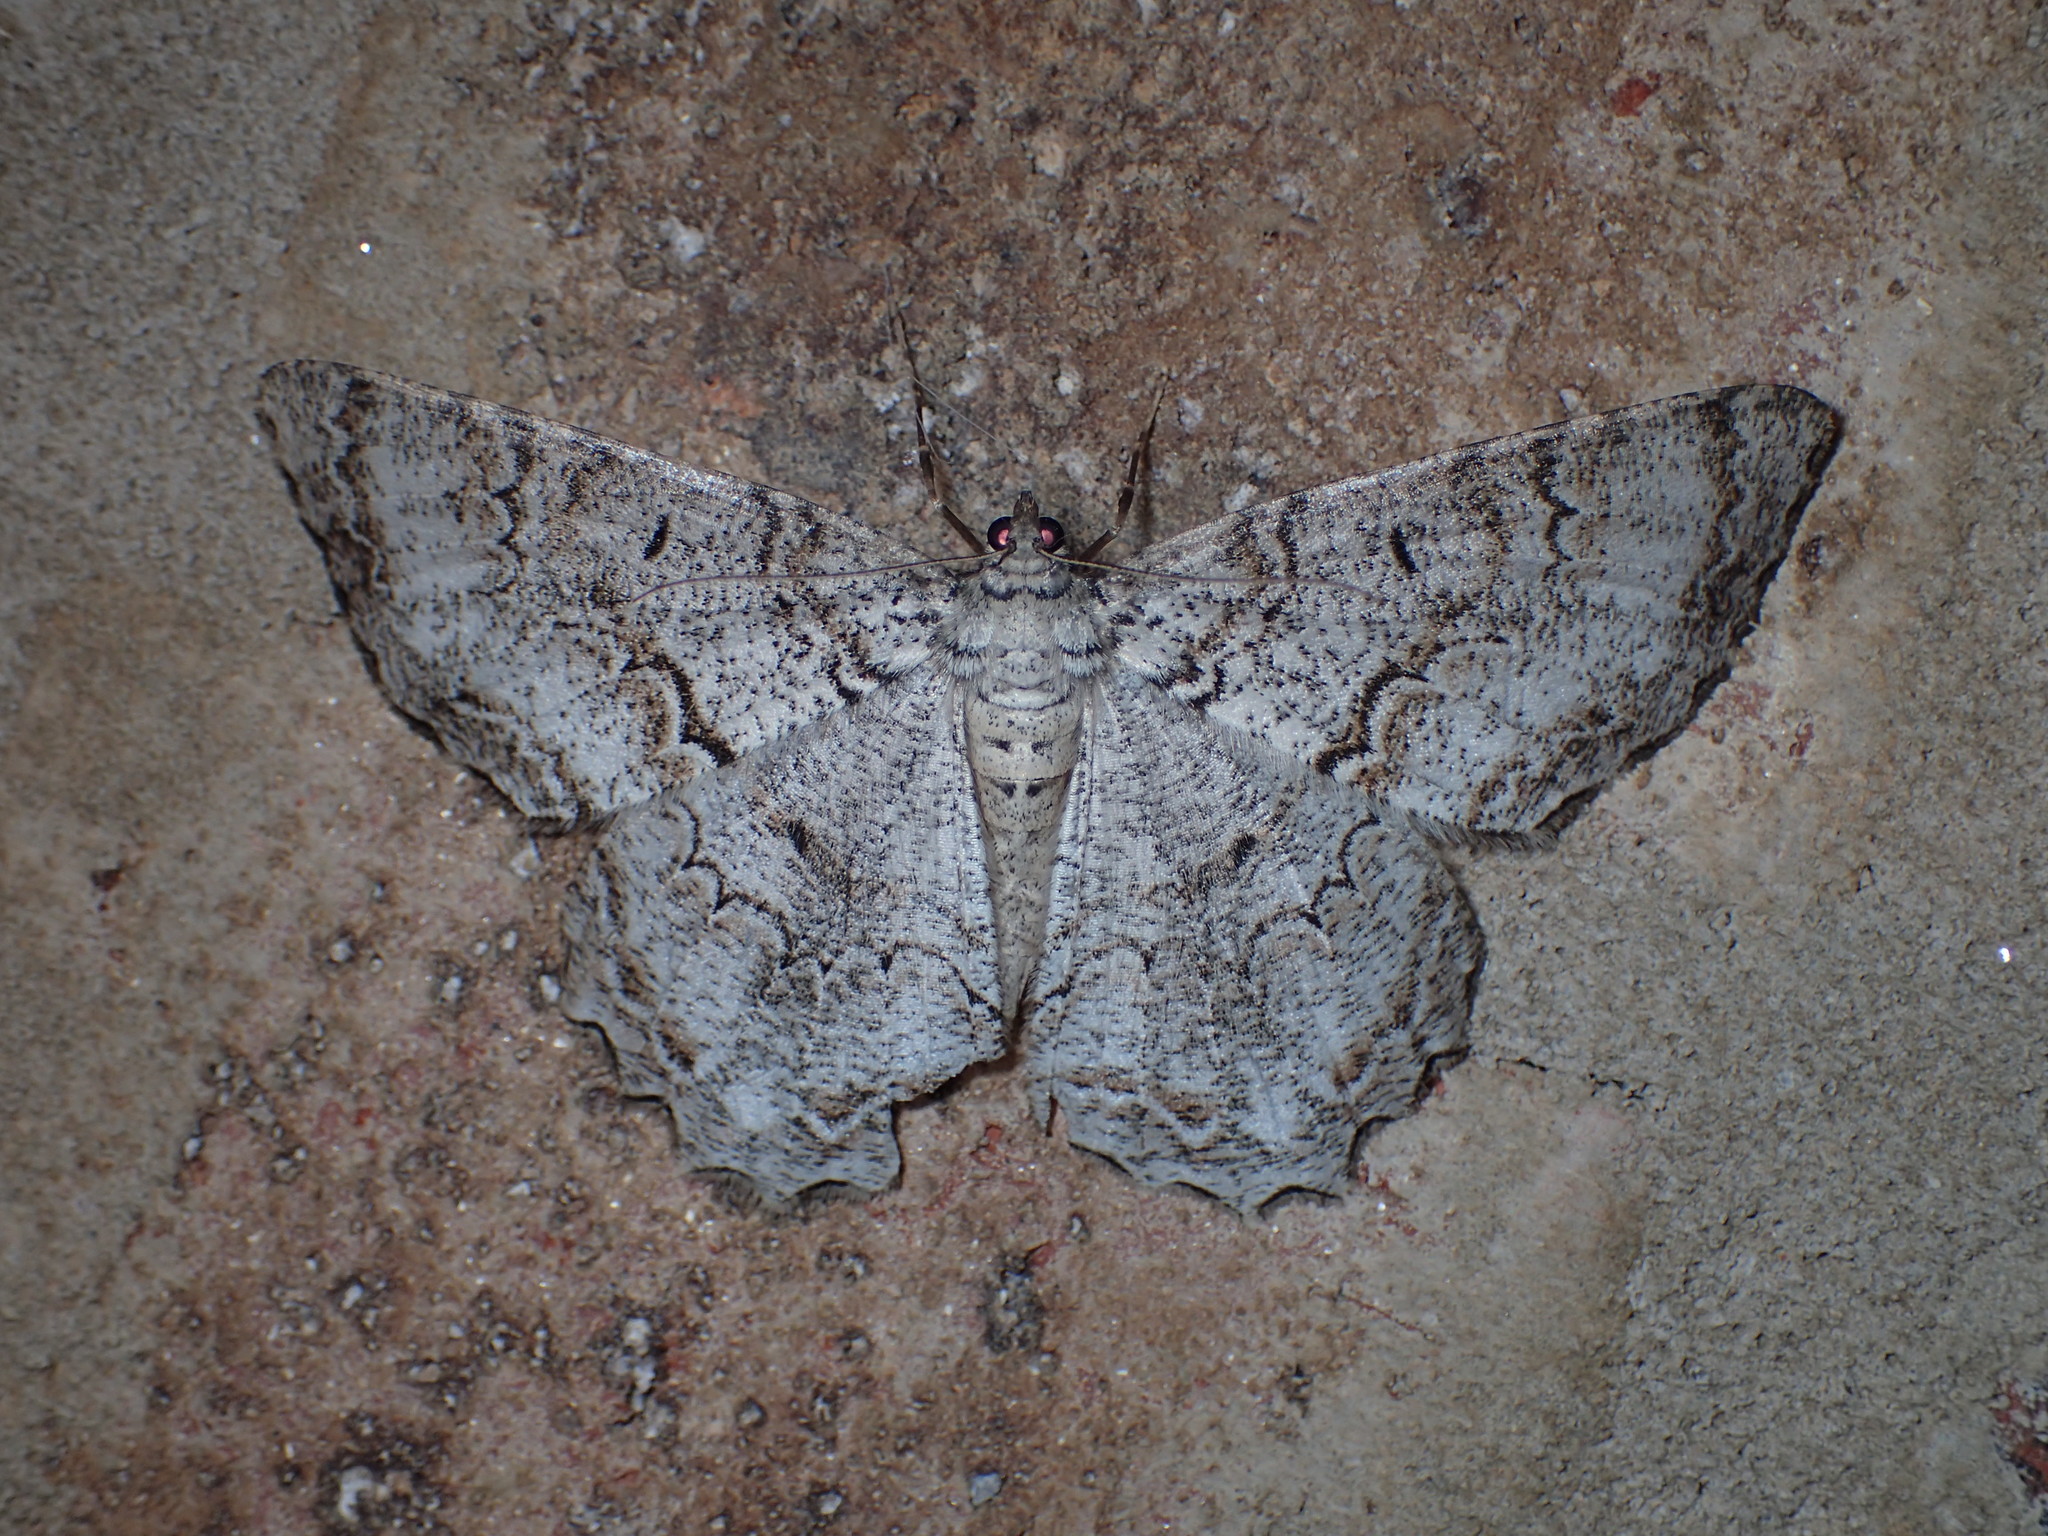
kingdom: Animalia
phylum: Arthropoda
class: Insecta
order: Lepidoptera
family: Geometridae
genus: Epimecis
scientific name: Epimecis hortaria
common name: Tulip-tree beauty
